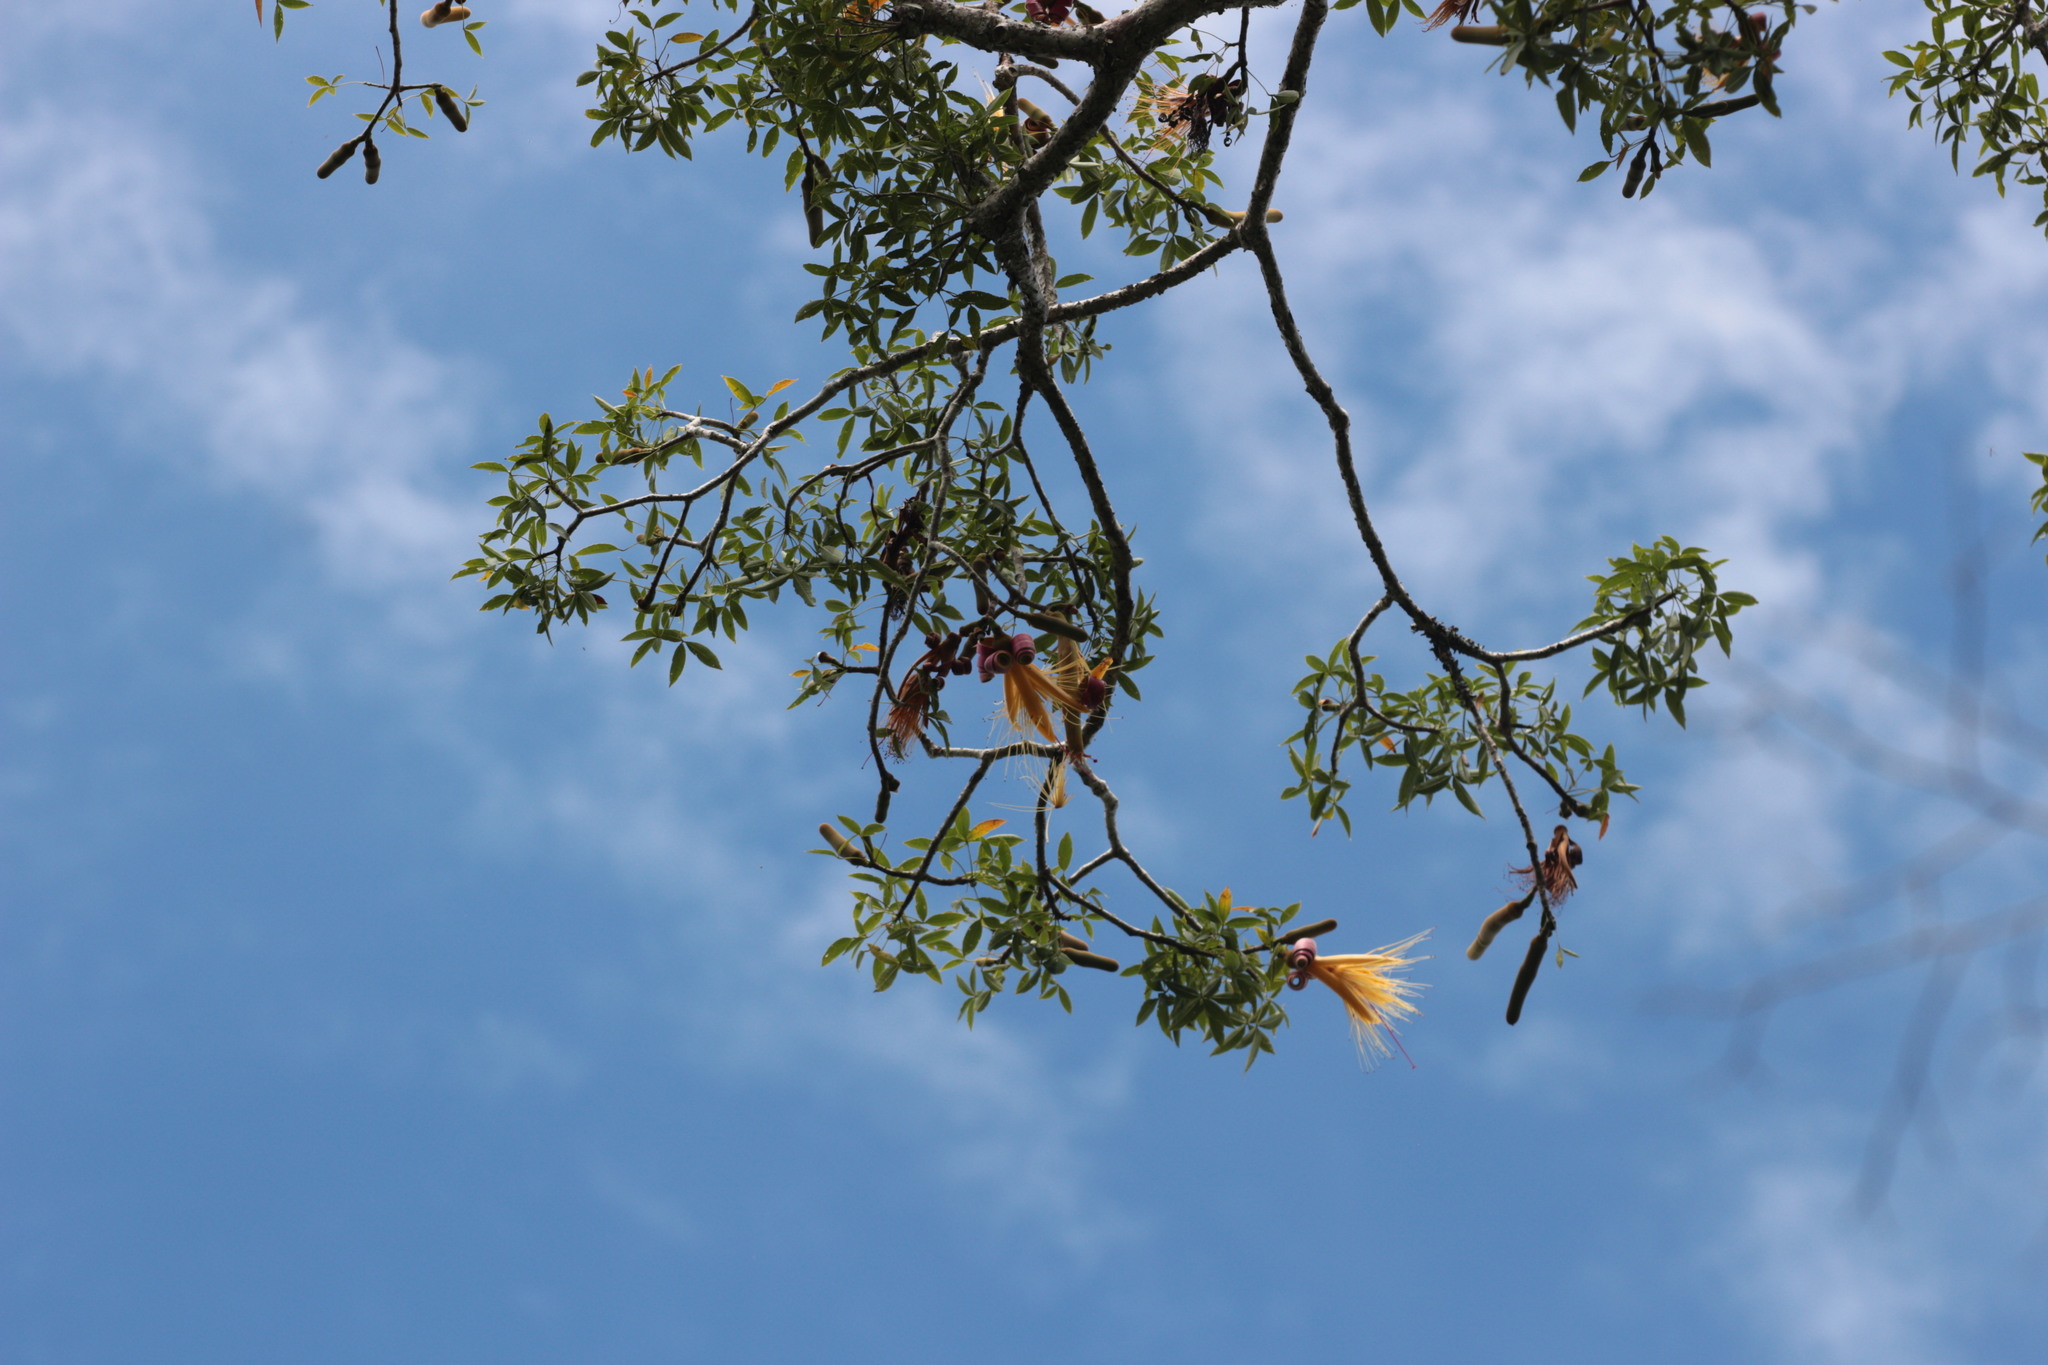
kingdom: Plantae
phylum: Tracheophyta
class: Magnoliopsida
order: Malvales
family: Malvaceae
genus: Adansonia
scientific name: Adansonia rubrostipa
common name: Fony baobab
